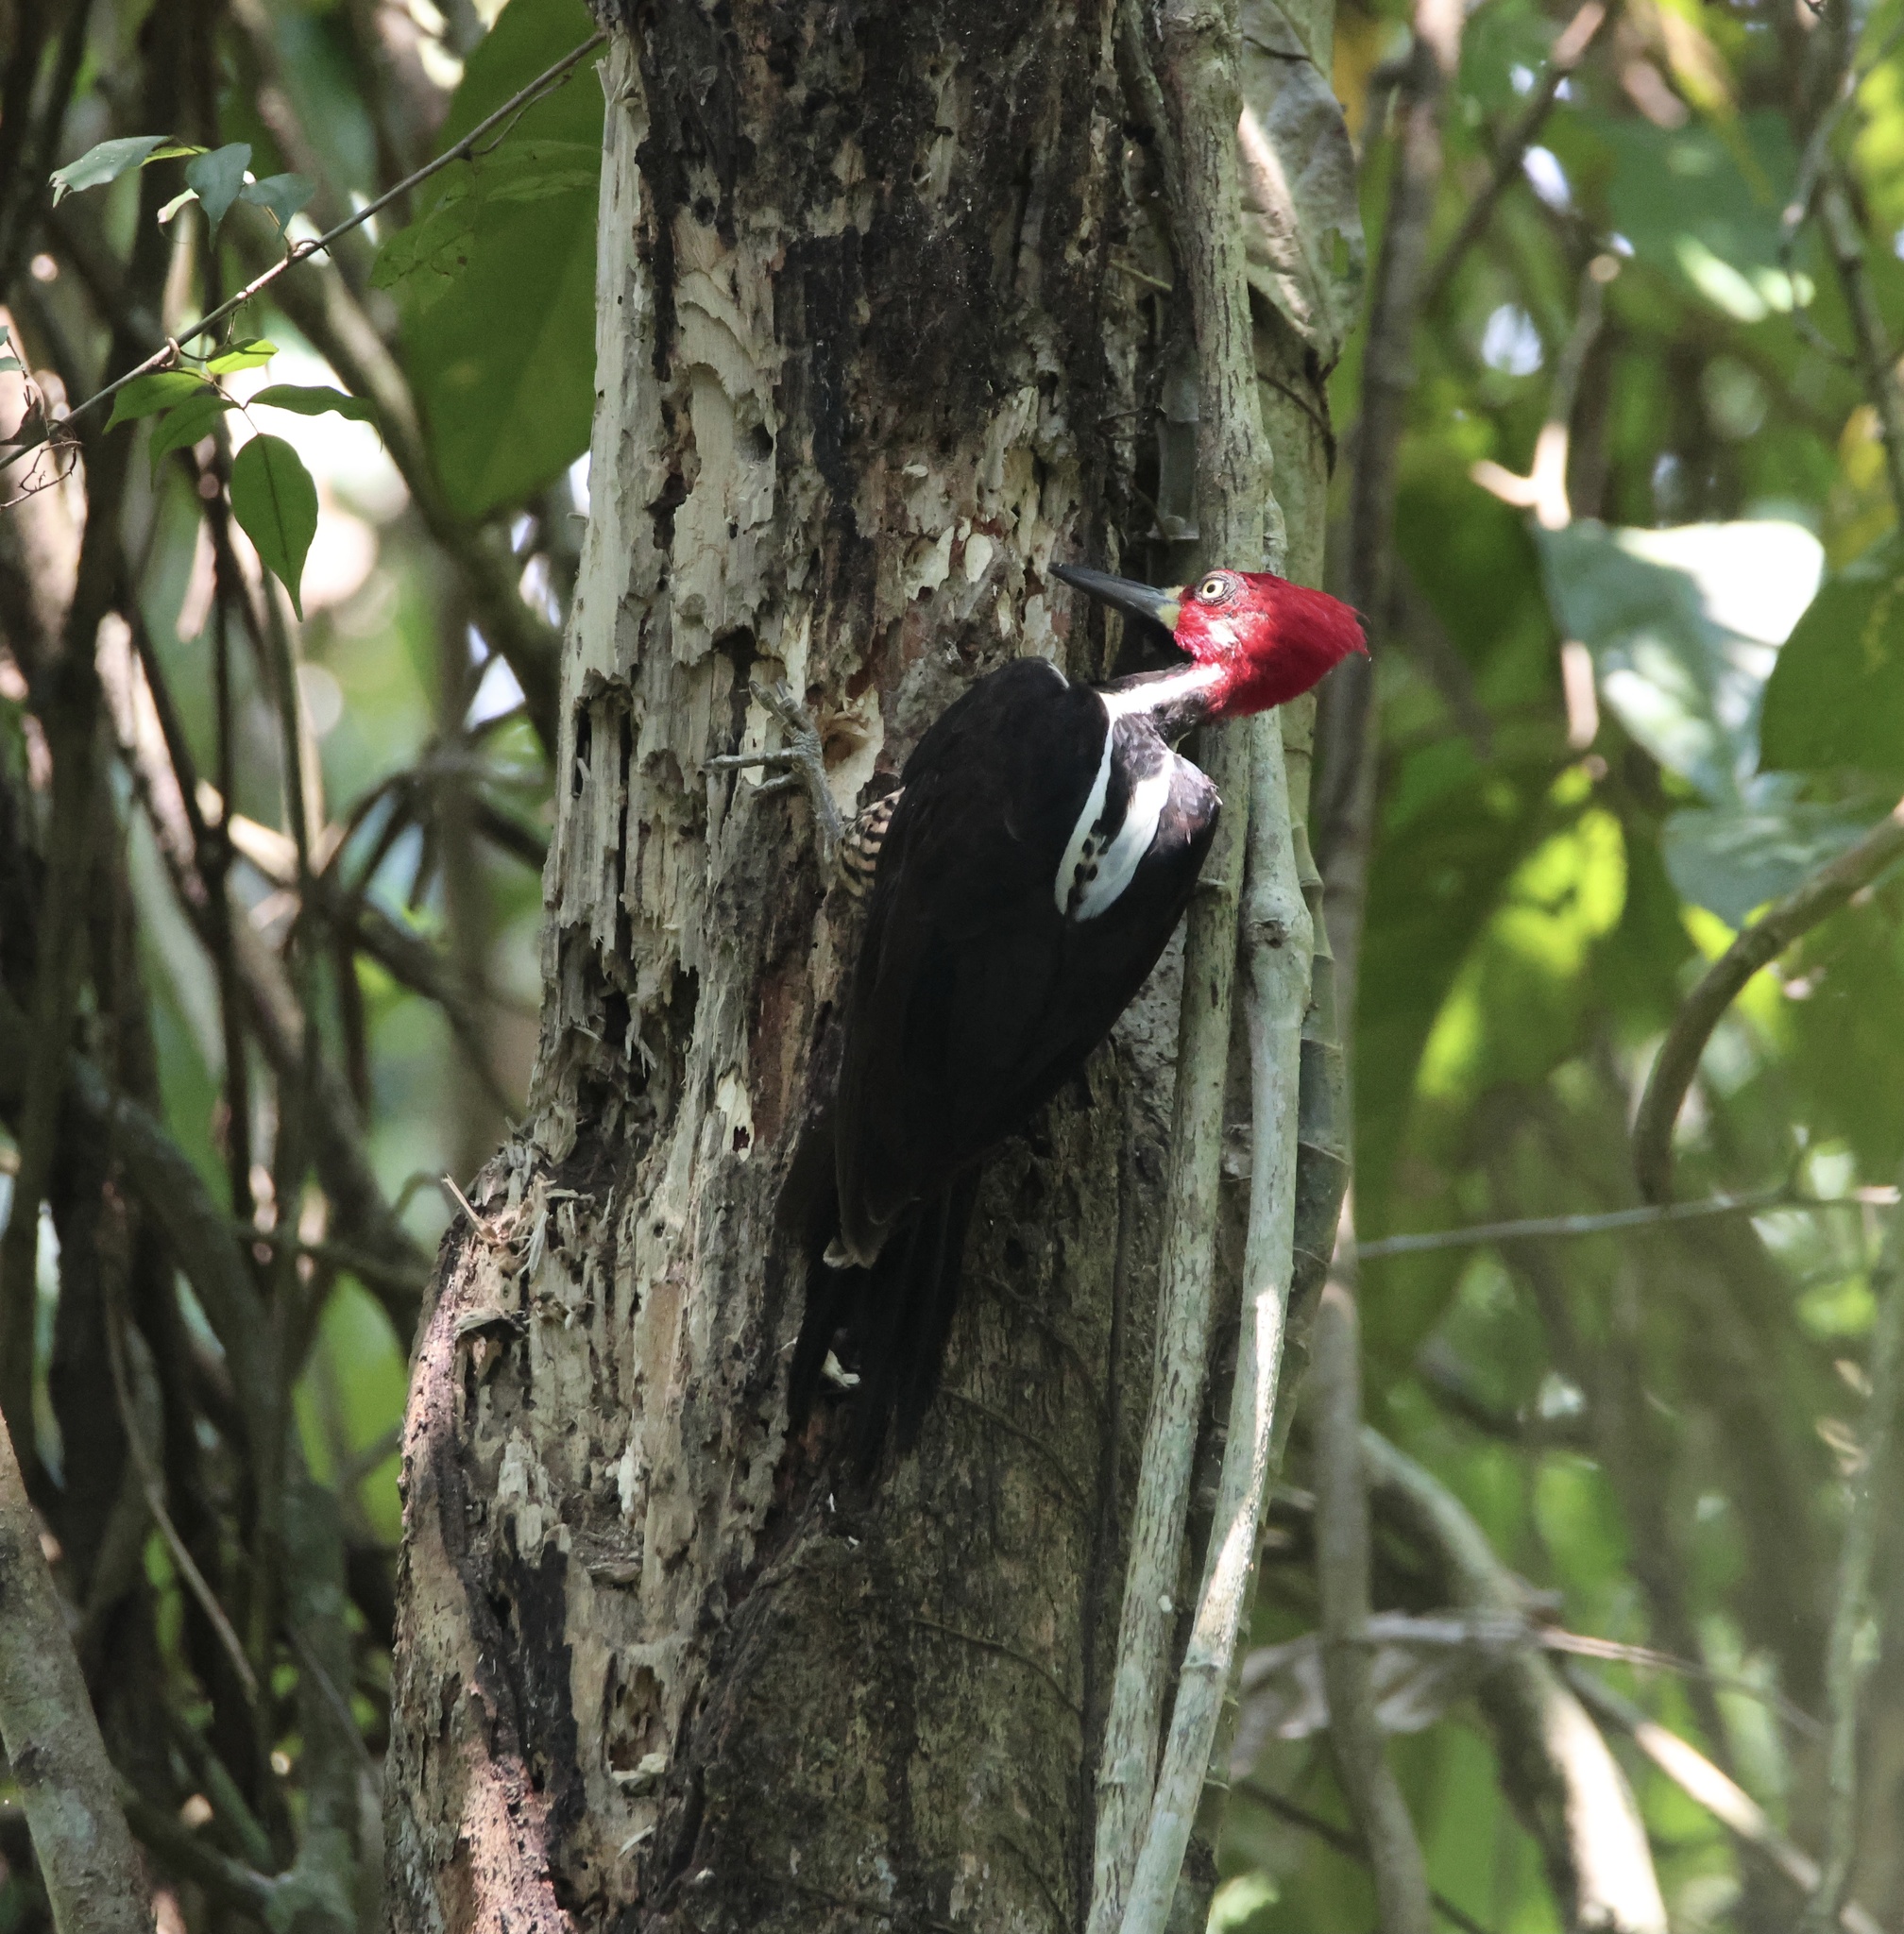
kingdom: Animalia
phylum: Chordata
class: Aves
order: Piciformes
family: Picidae
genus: Campephilus
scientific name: Campephilus melanoleucos
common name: Crimson-crested woodpecker
